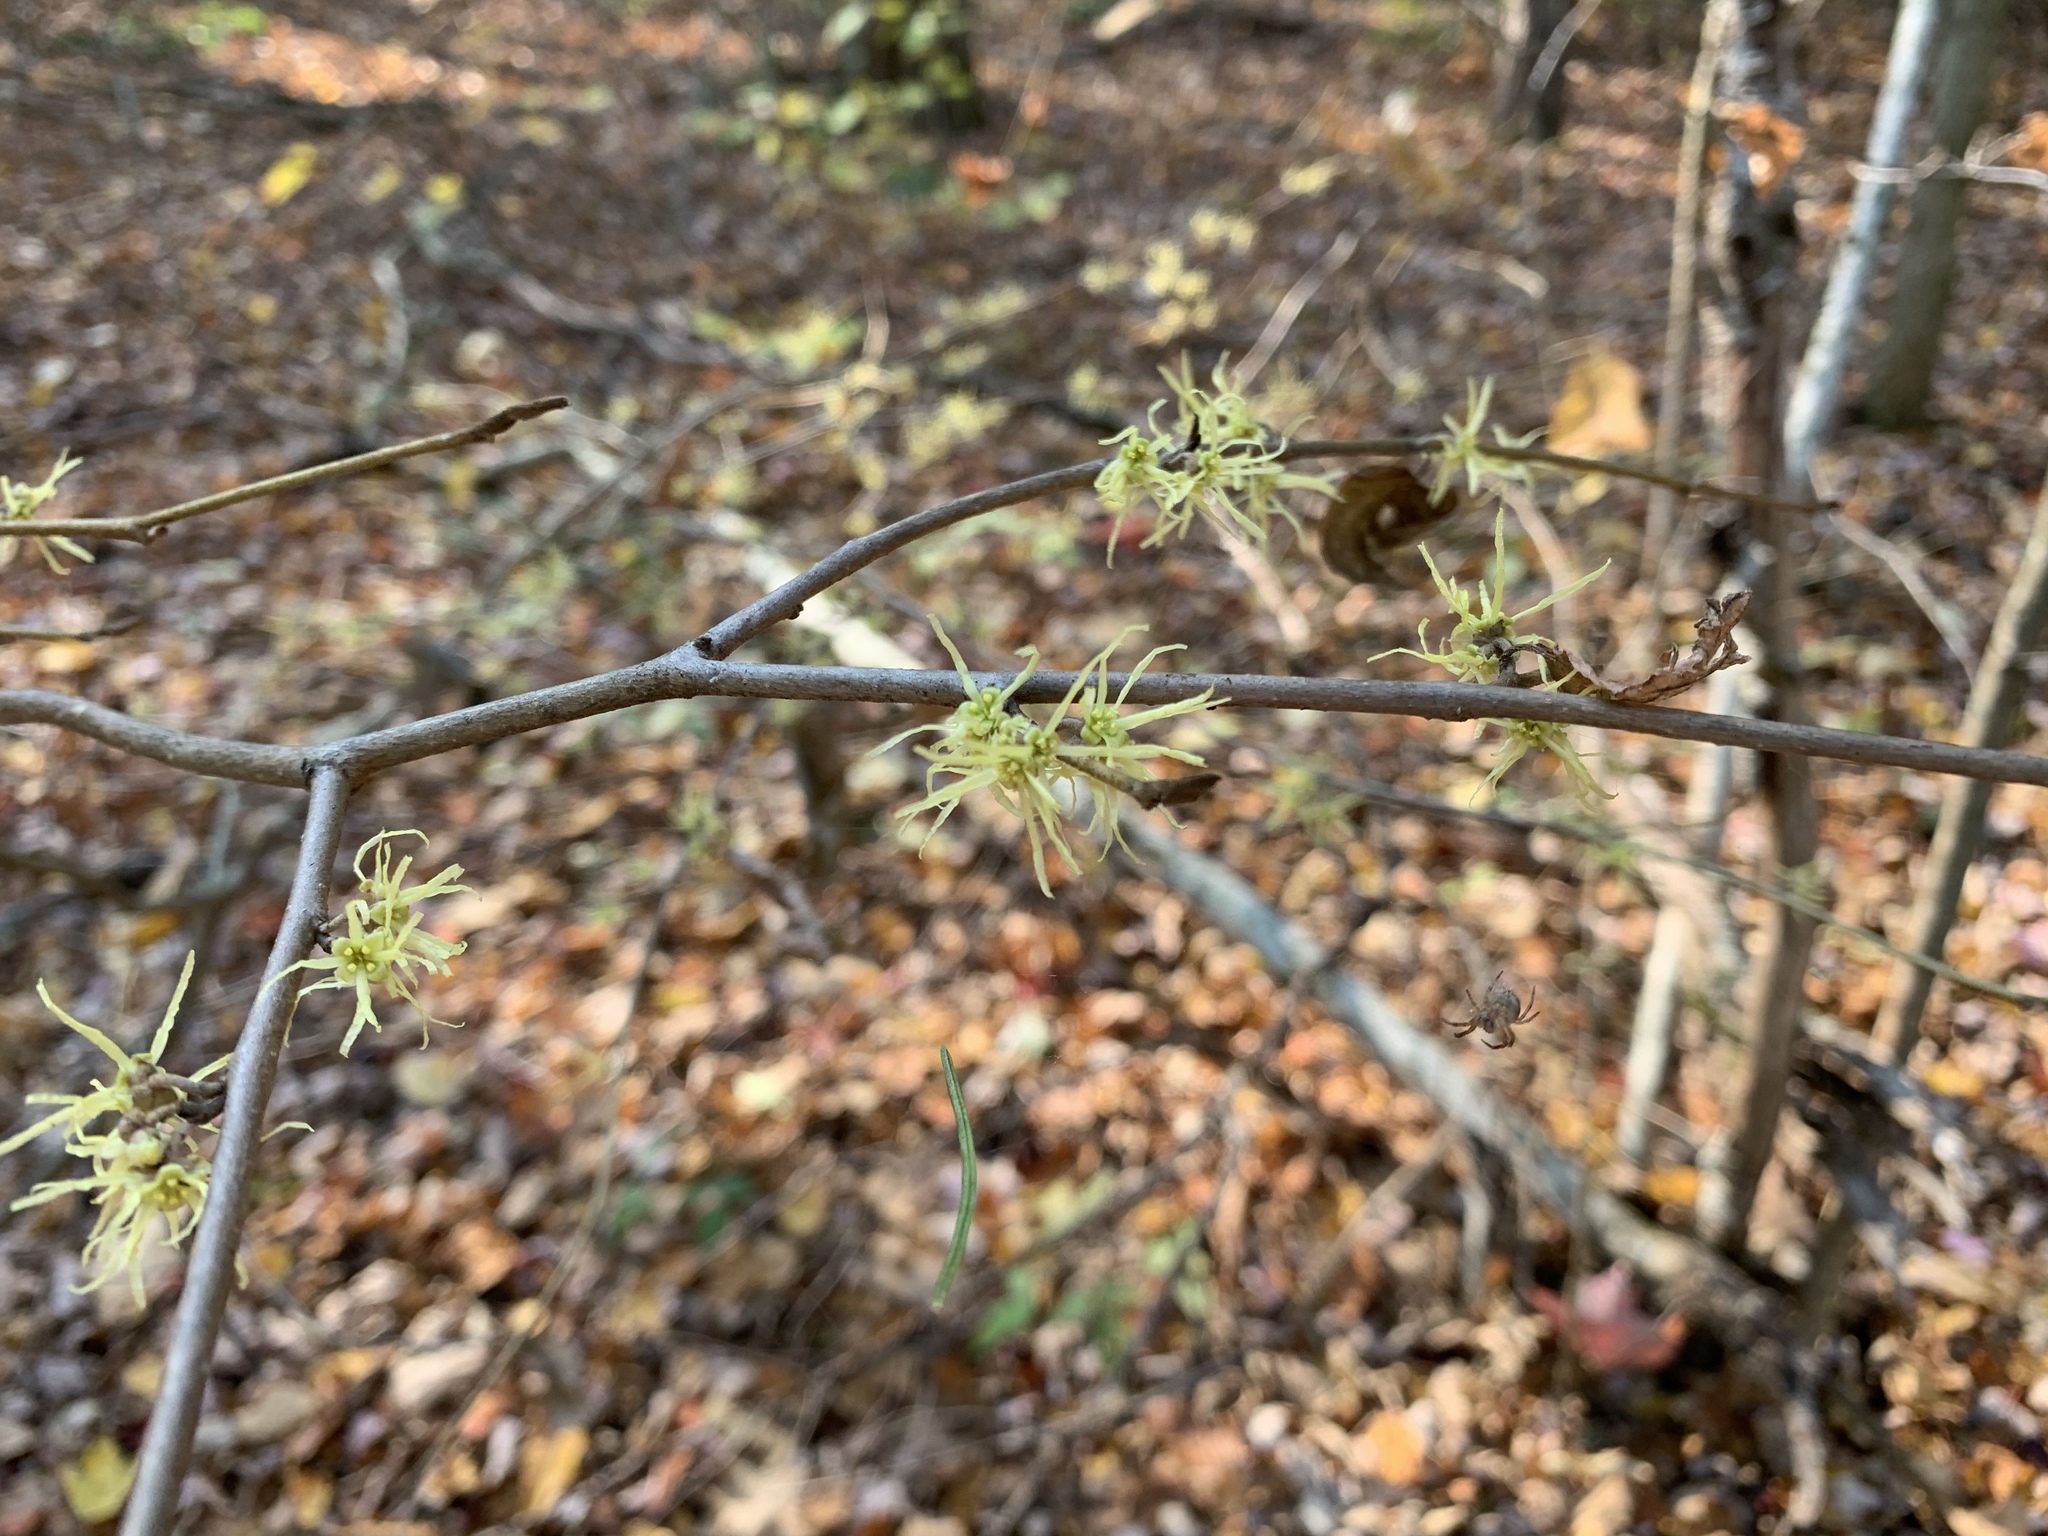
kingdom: Plantae
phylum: Tracheophyta
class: Magnoliopsida
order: Saxifragales
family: Hamamelidaceae
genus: Hamamelis
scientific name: Hamamelis virginiana
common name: Witch-hazel
